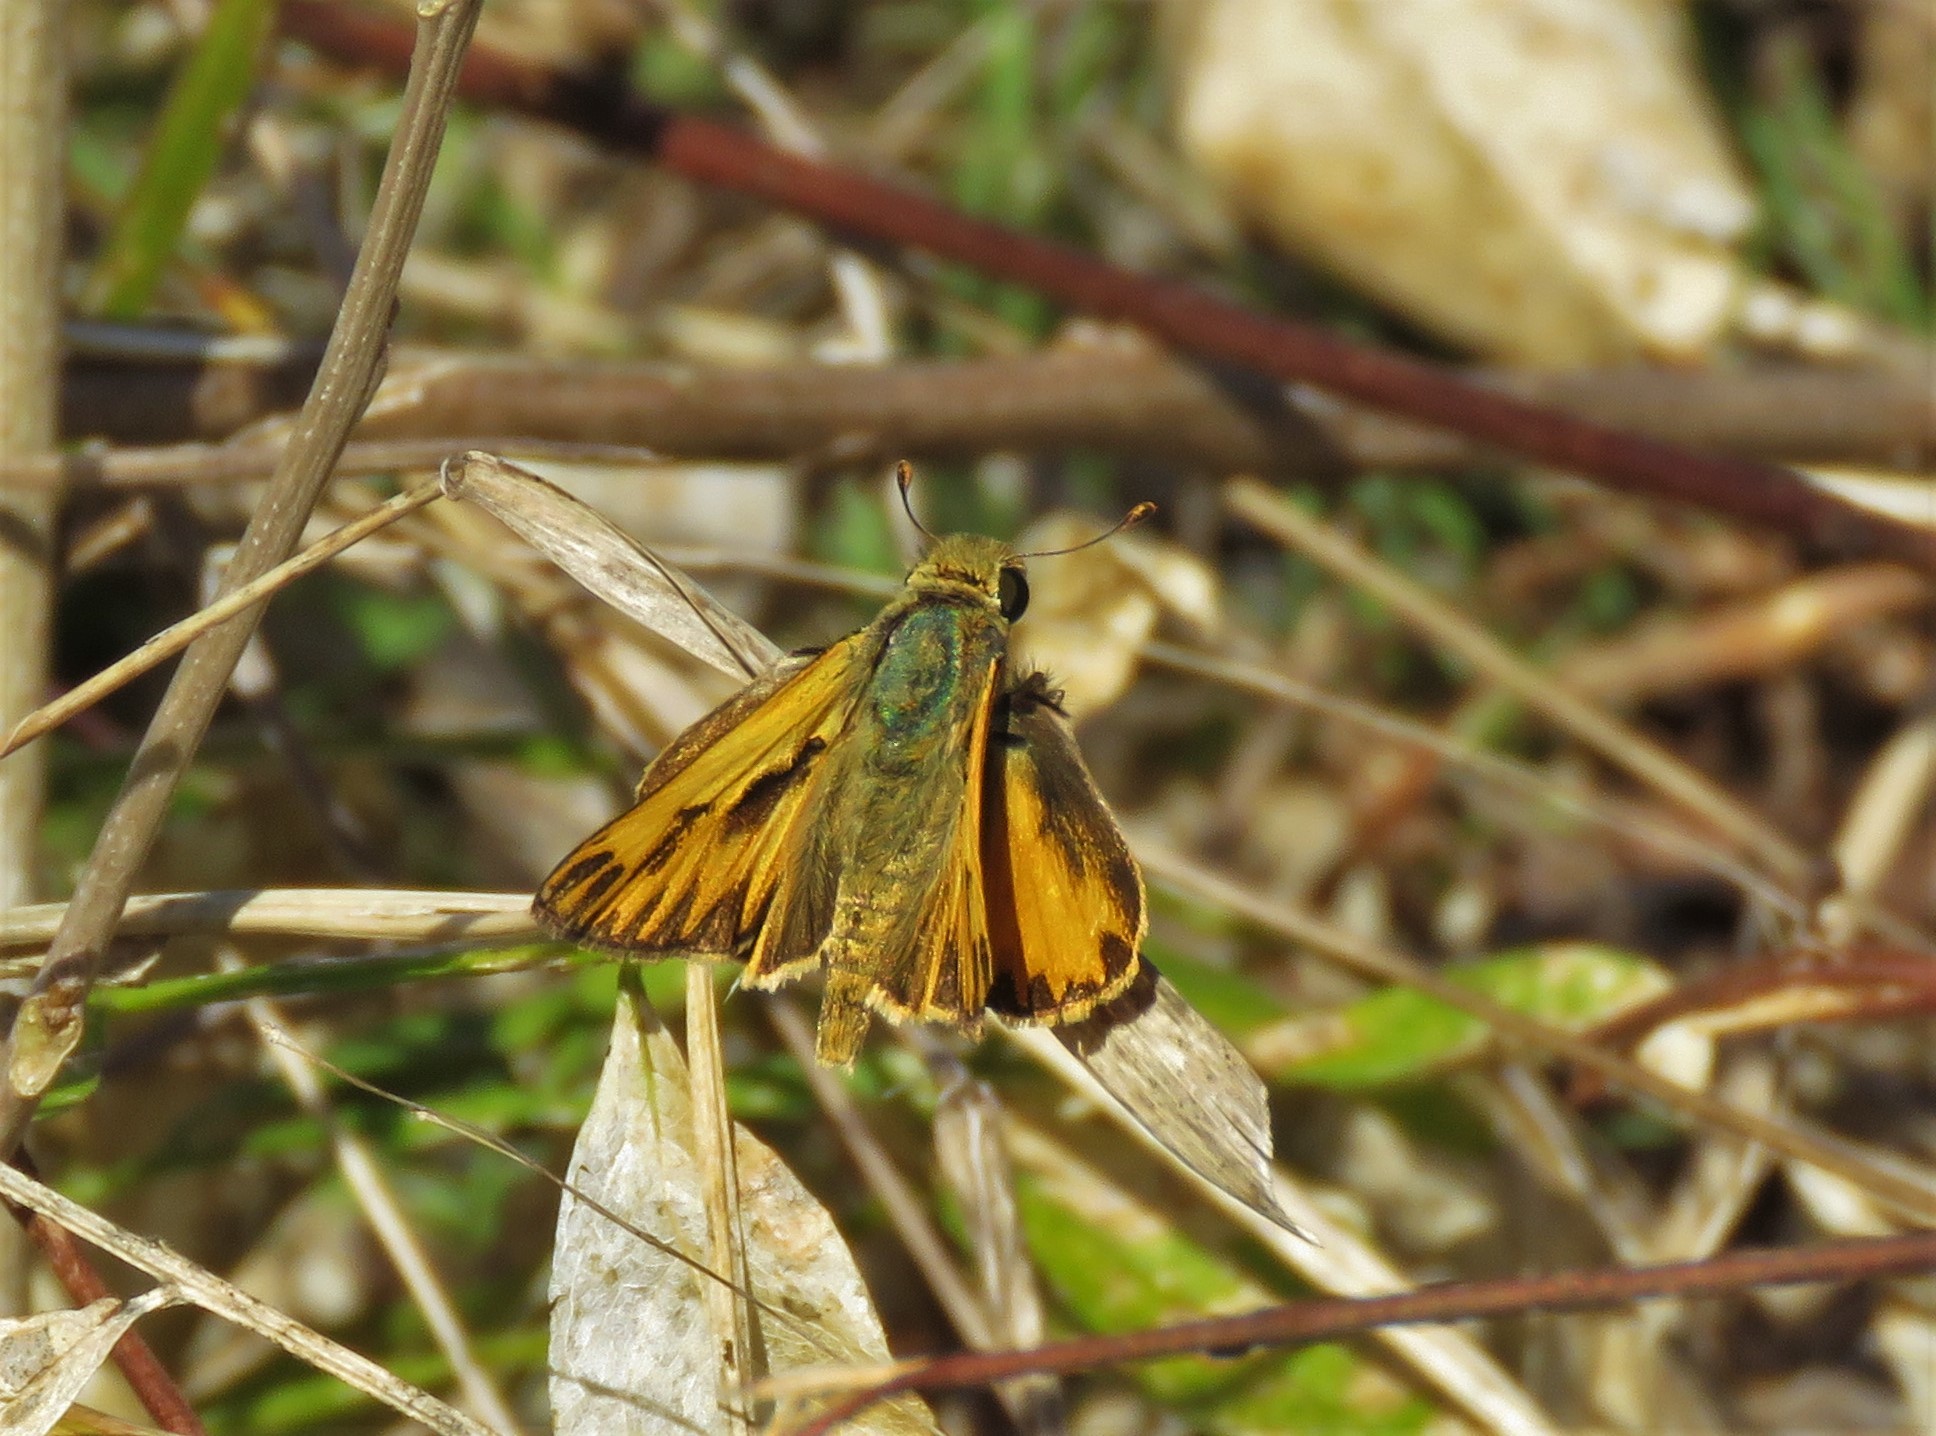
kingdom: Animalia
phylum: Arthropoda
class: Insecta
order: Lepidoptera
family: Hesperiidae
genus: Hylephila
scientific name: Hylephila phyleus
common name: Fiery skipper
